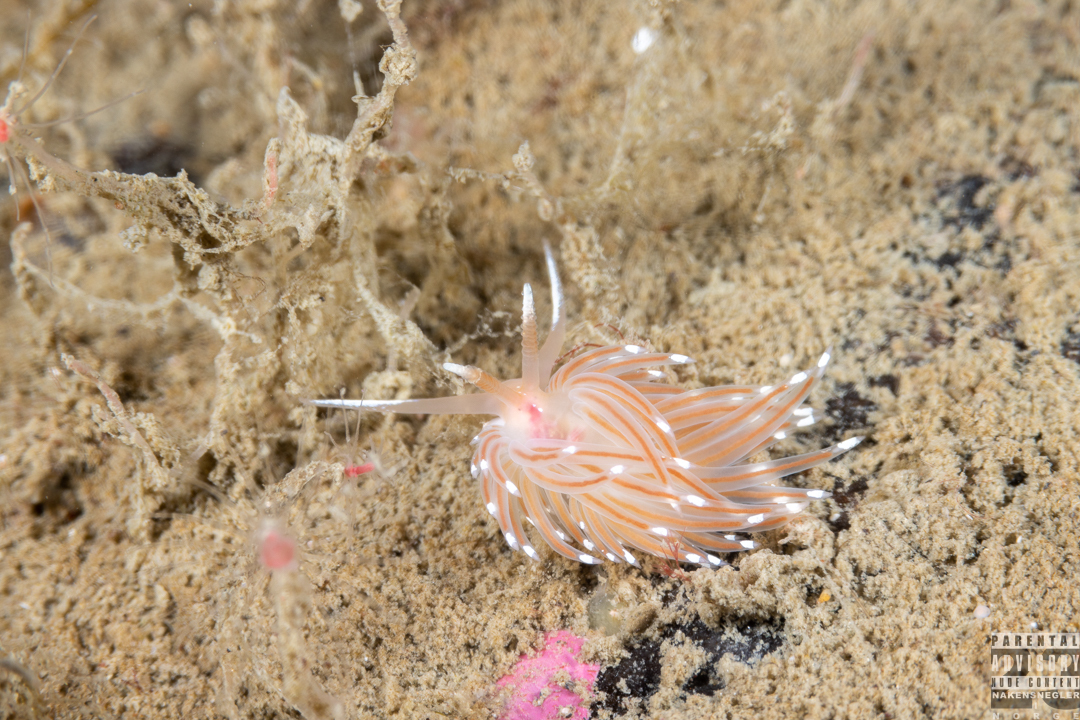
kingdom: Animalia
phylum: Mollusca
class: Gastropoda
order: Nudibranchia
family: Facelinidae
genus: Facelina
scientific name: Facelina bostoniensis
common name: Boston facelina
